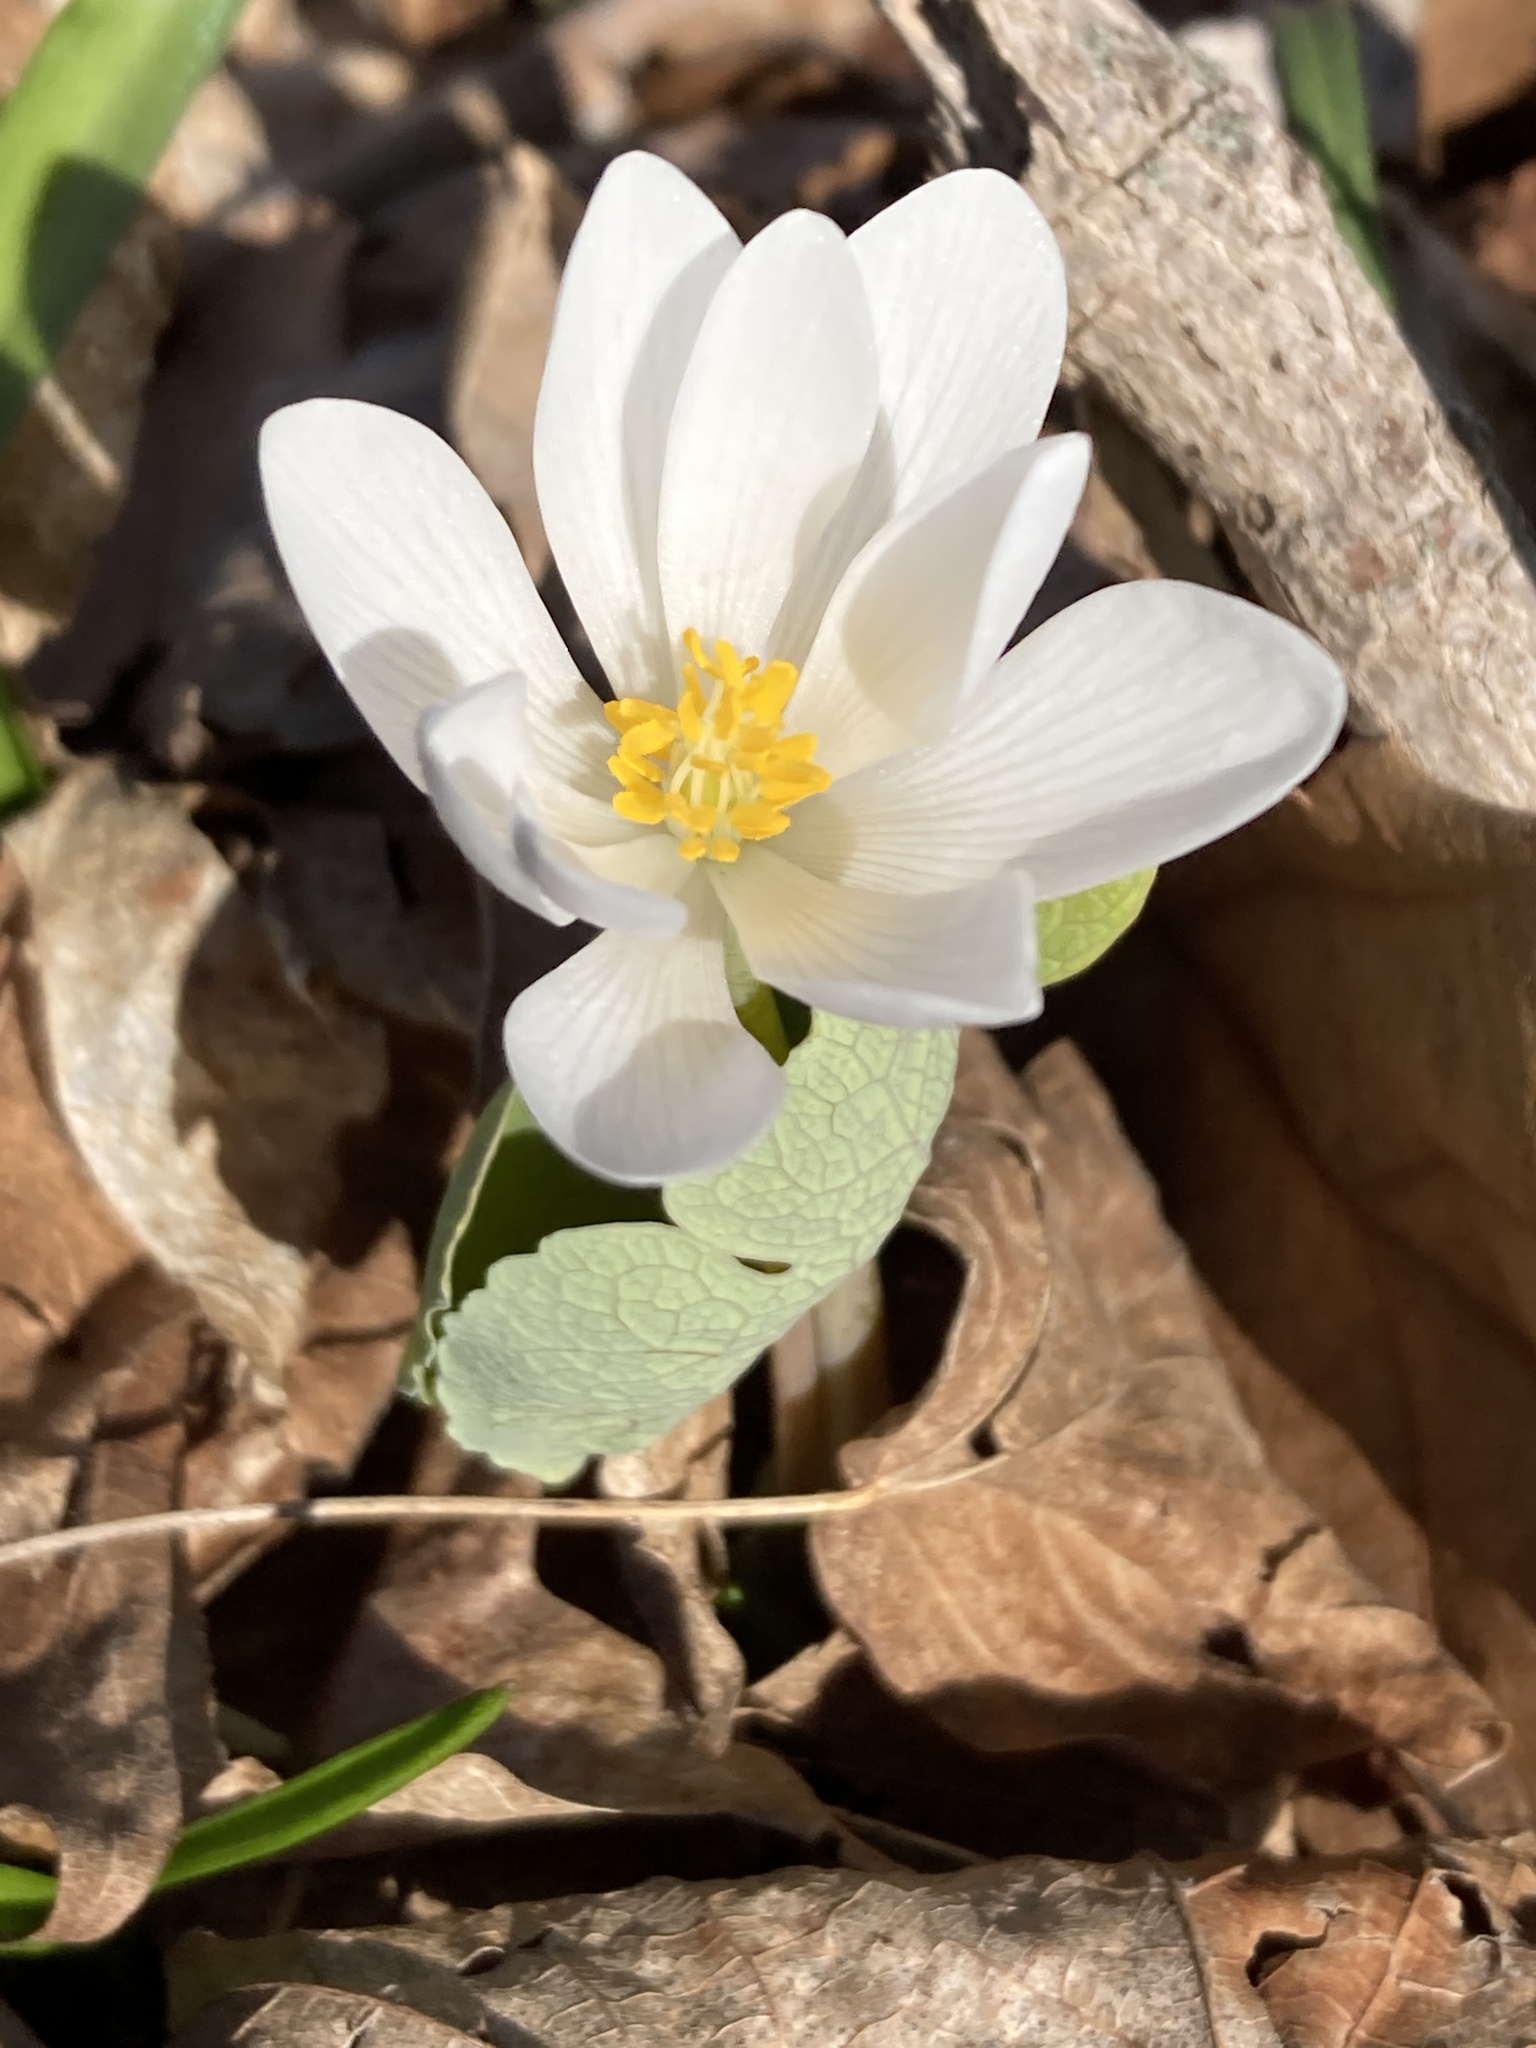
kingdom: Plantae
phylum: Tracheophyta
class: Magnoliopsida
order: Ranunculales
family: Papaveraceae
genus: Sanguinaria
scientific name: Sanguinaria canadensis
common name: Bloodroot
